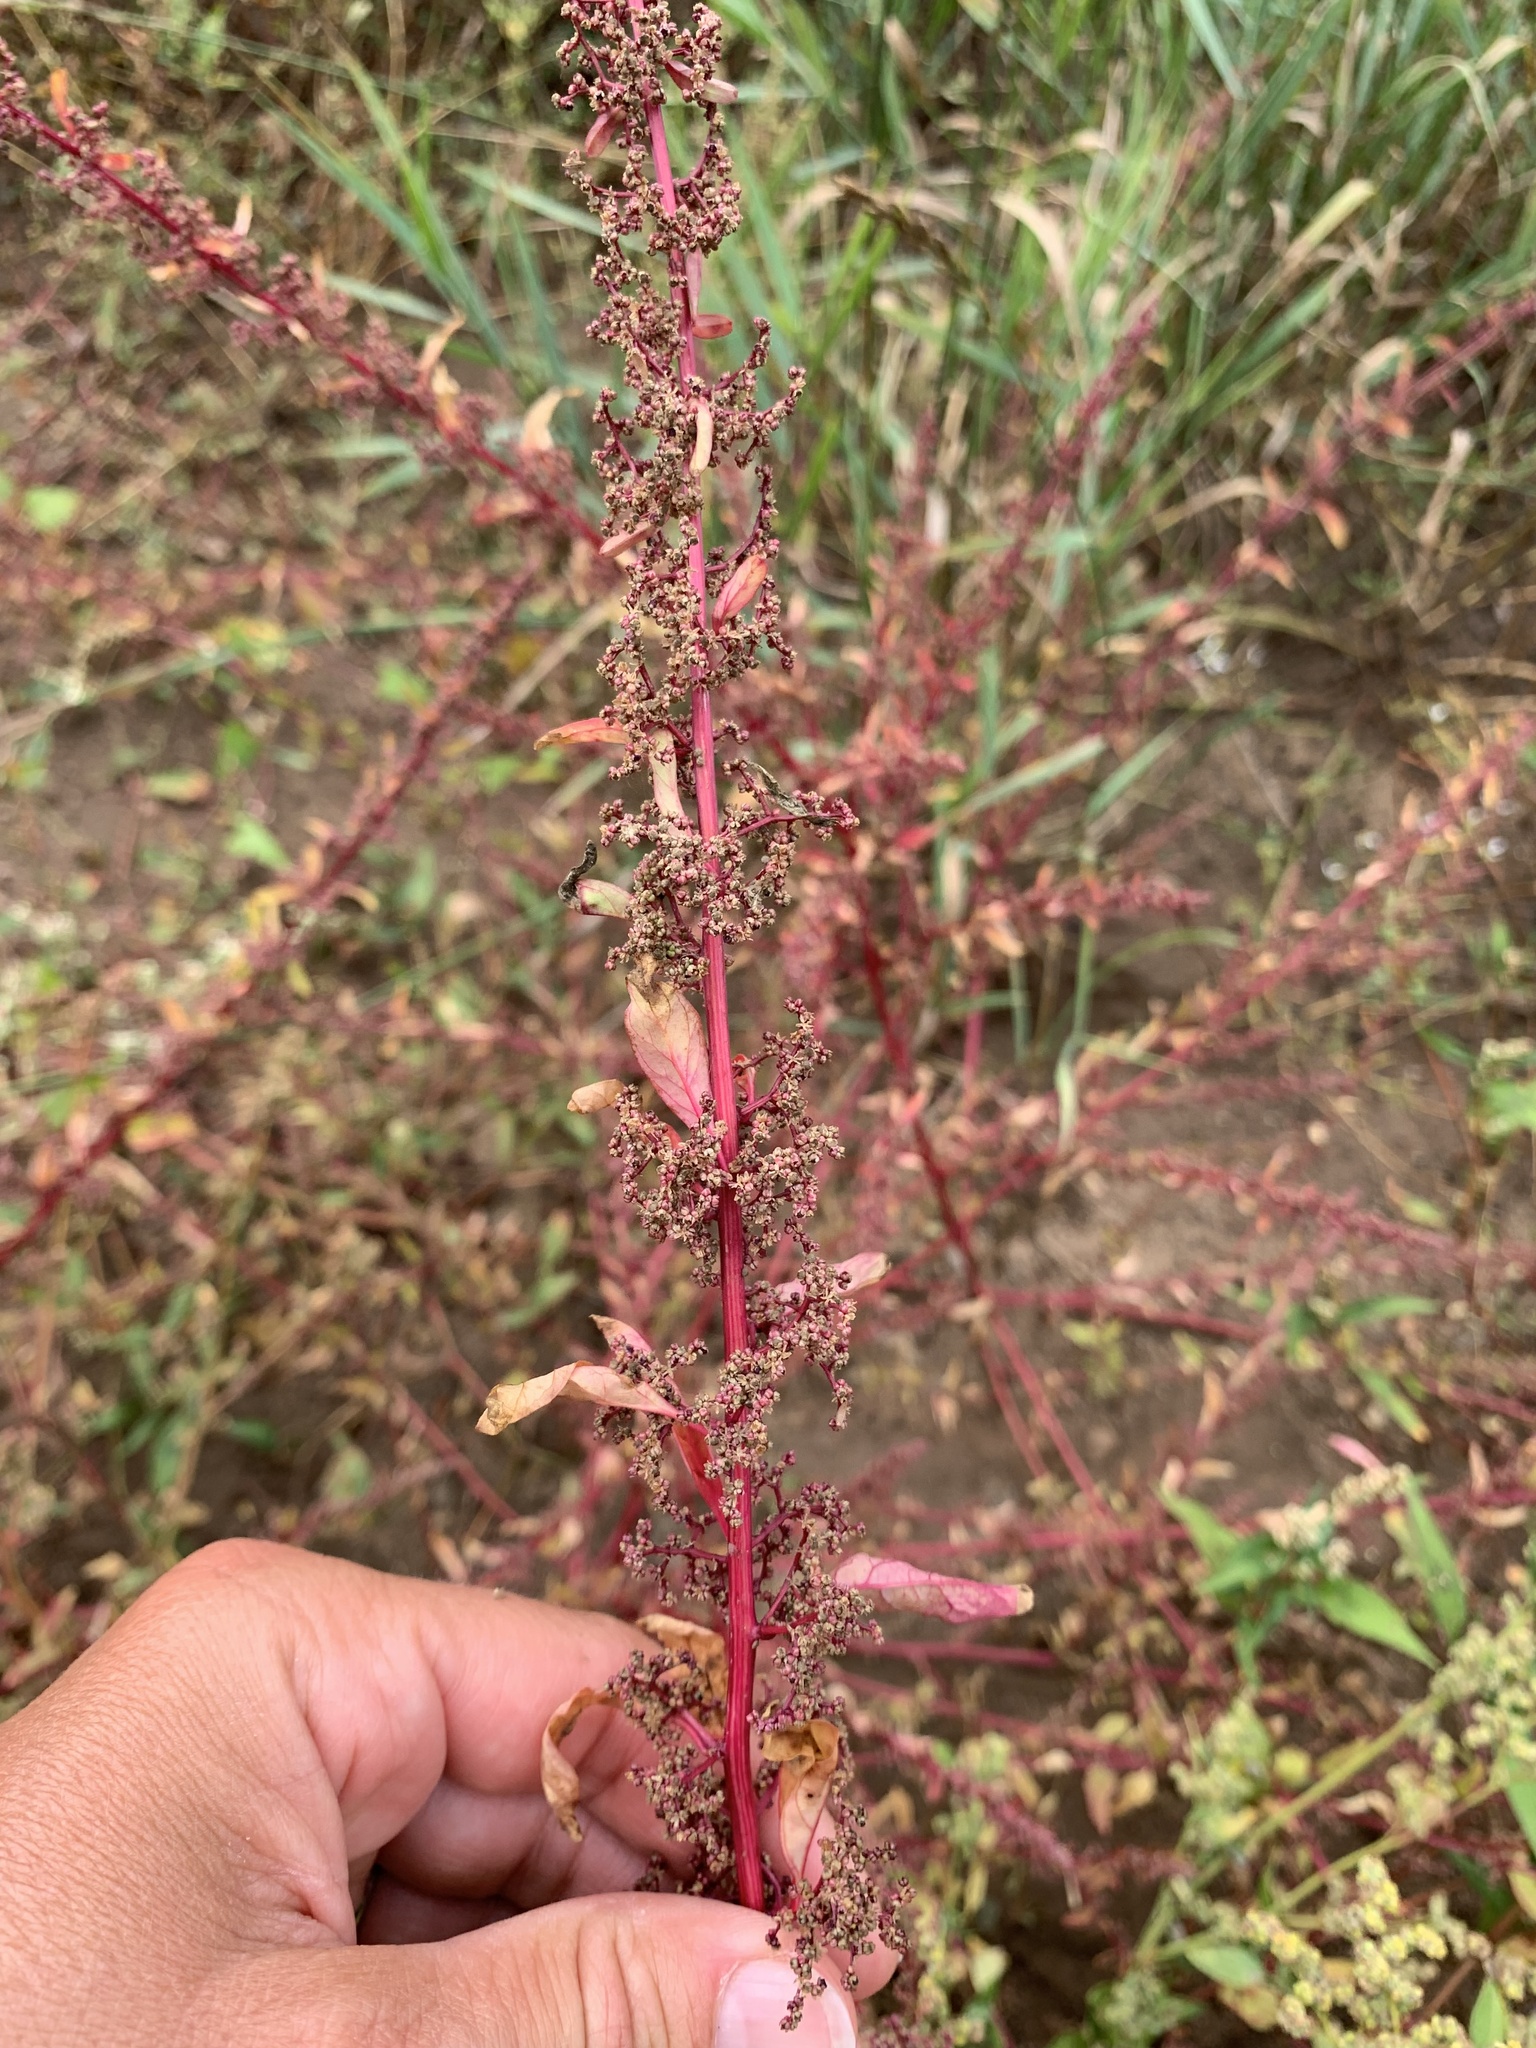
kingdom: Plantae
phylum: Tracheophyta
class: Magnoliopsida
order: Caryophyllales
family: Amaranthaceae
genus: Lipandra
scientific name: Lipandra polysperma
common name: Many-seed goosefoot
